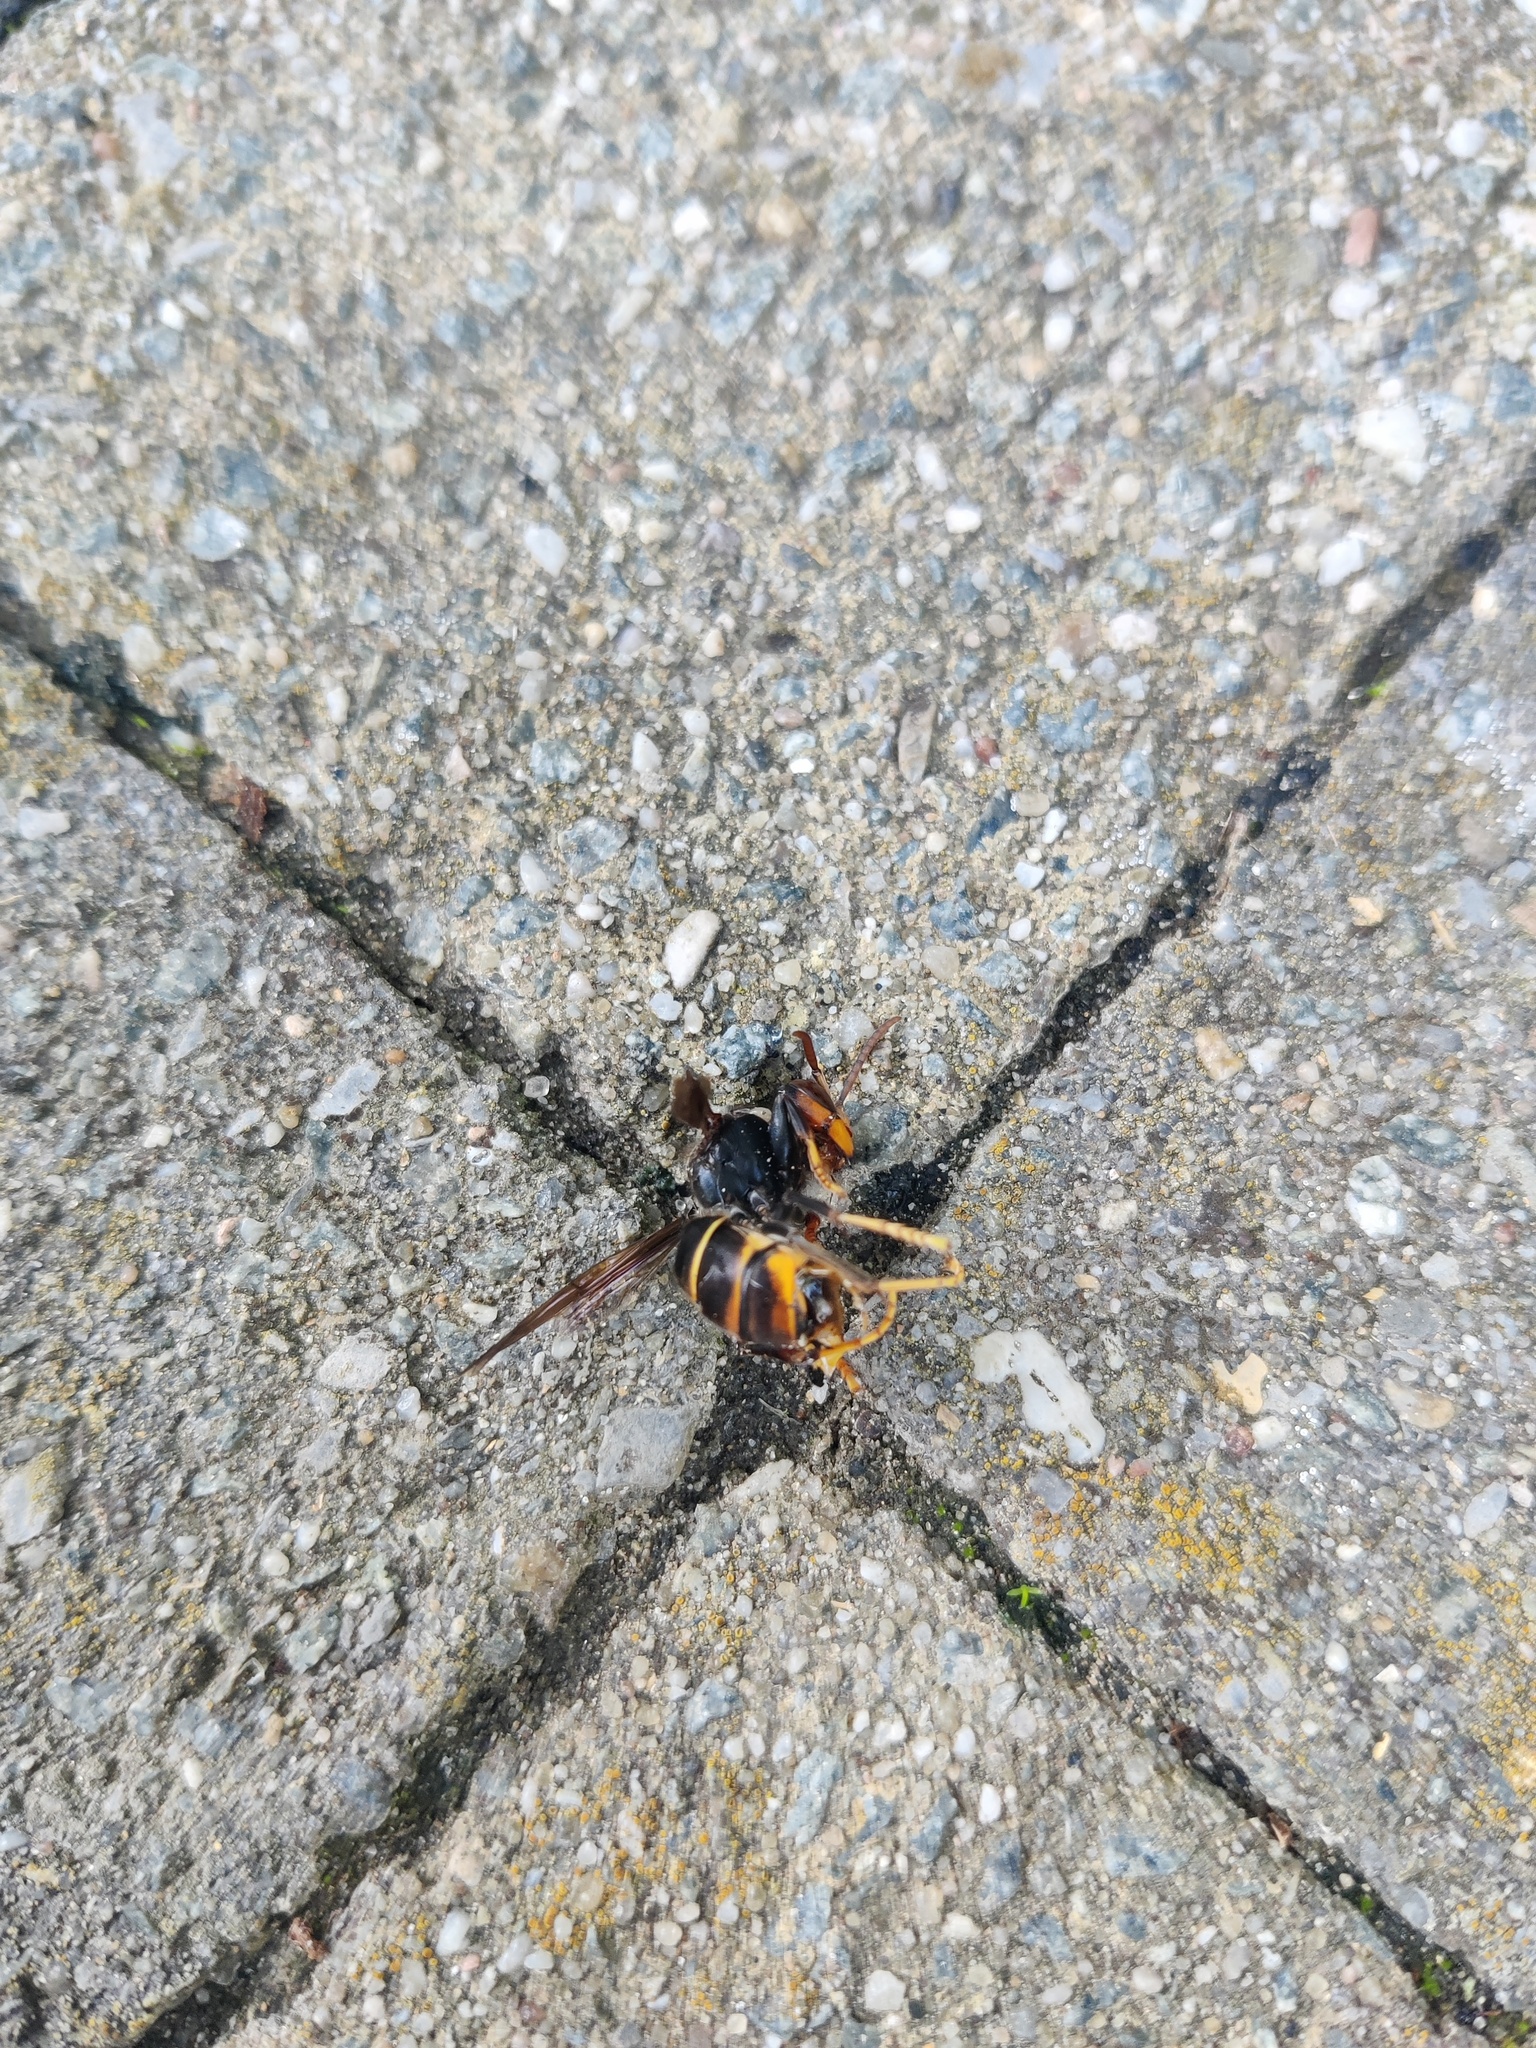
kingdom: Animalia
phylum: Arthropoda
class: Insecta
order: Hymenoptera
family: Vespidae
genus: Vespa
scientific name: Vespa velutina
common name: Asian hornet
